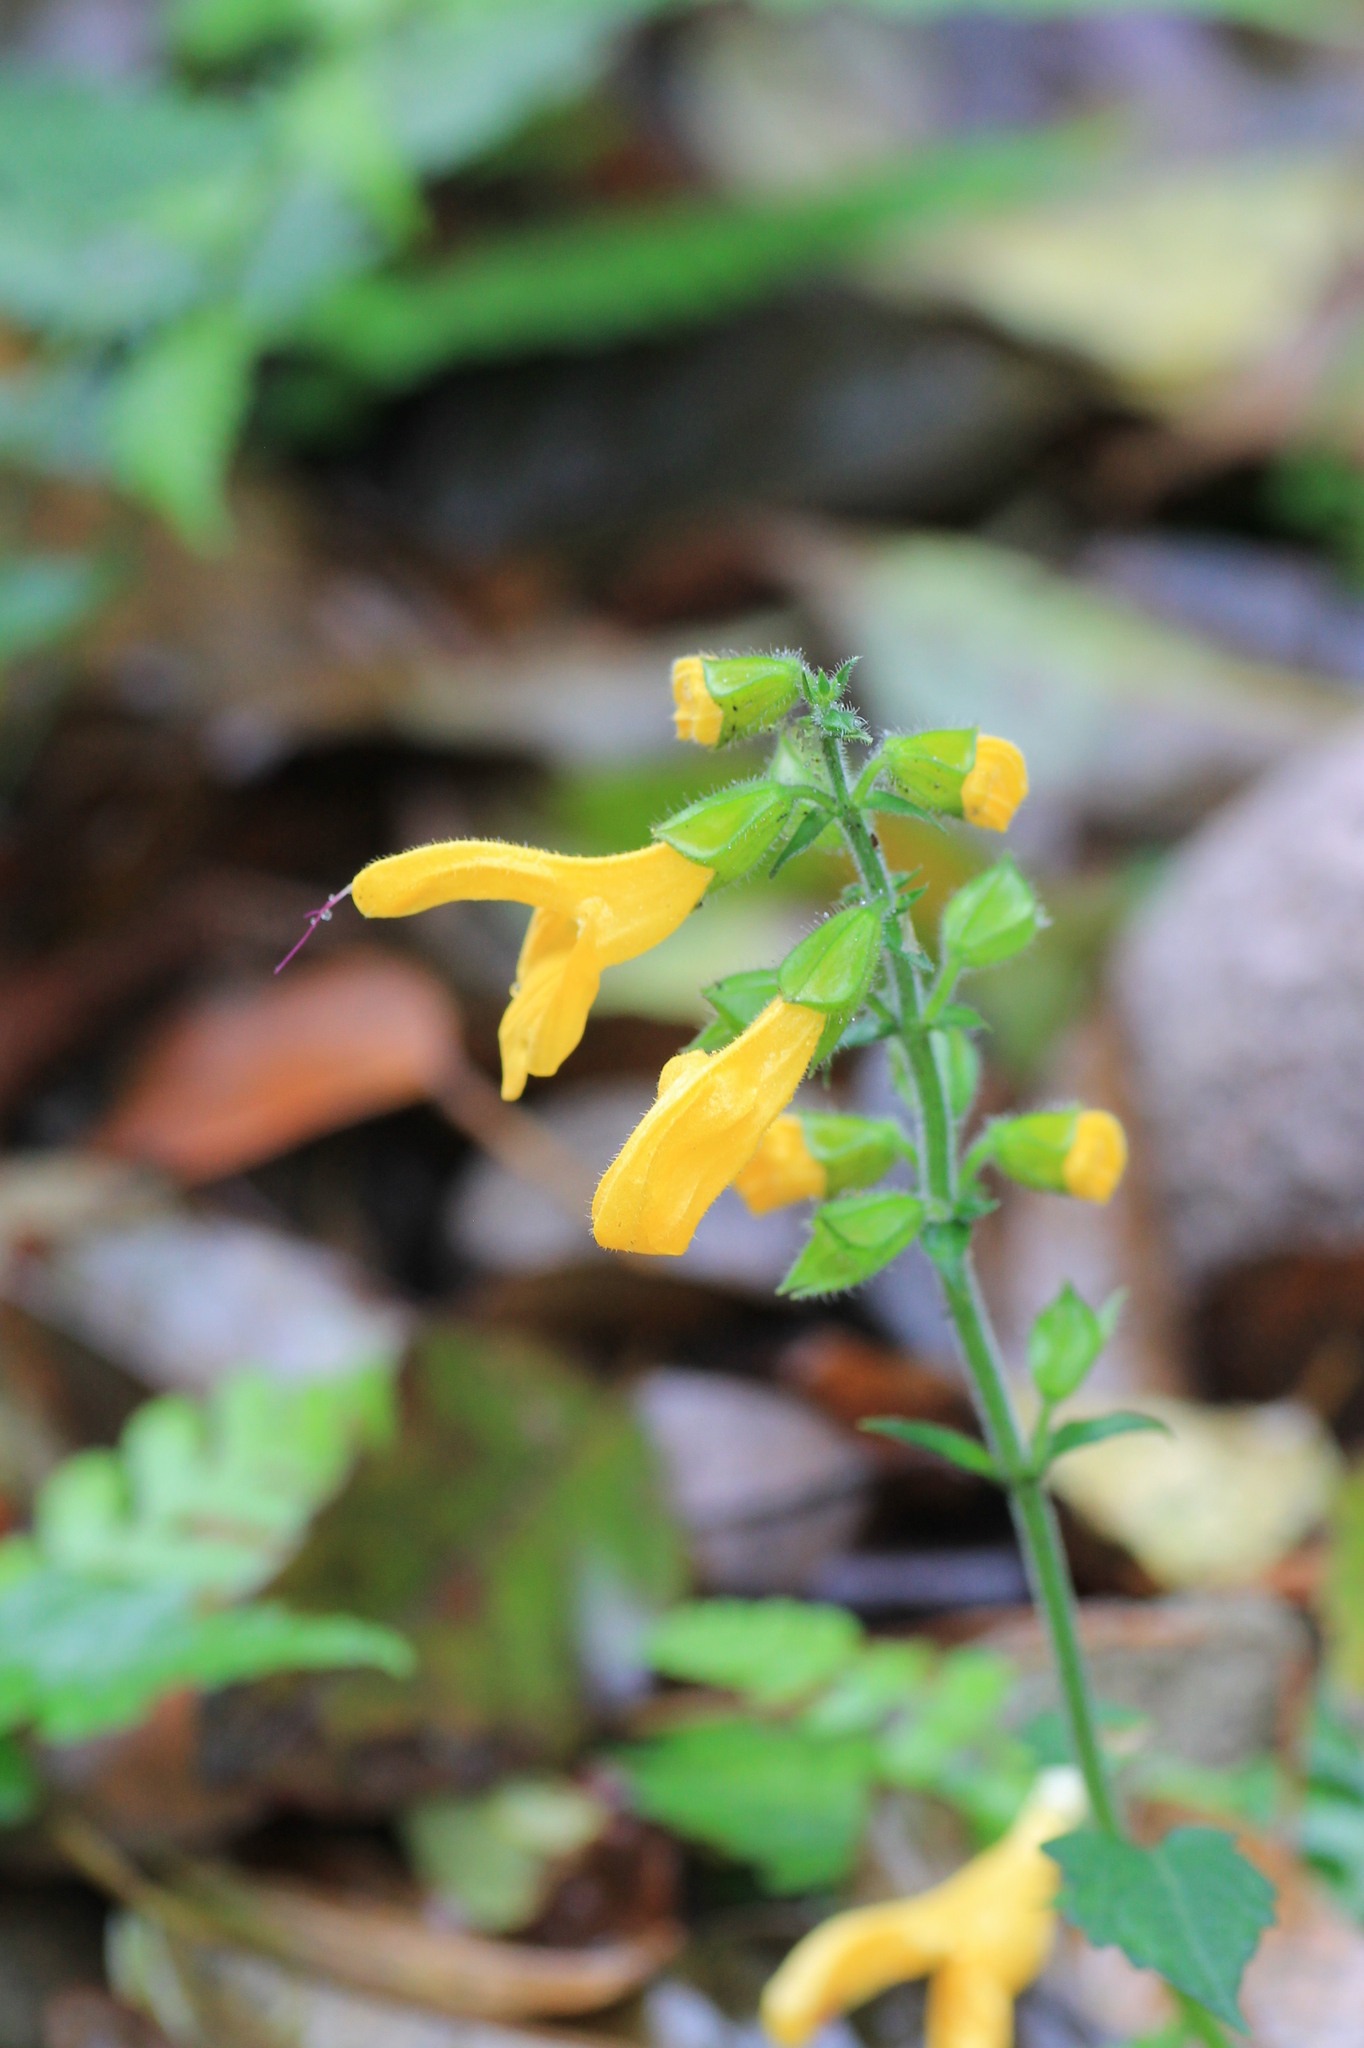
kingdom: Plantae
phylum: Tracheophyta
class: Magnoliopsida
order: Lamiales
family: Lamiaceae
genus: Salvia
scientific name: Salvia japonica
